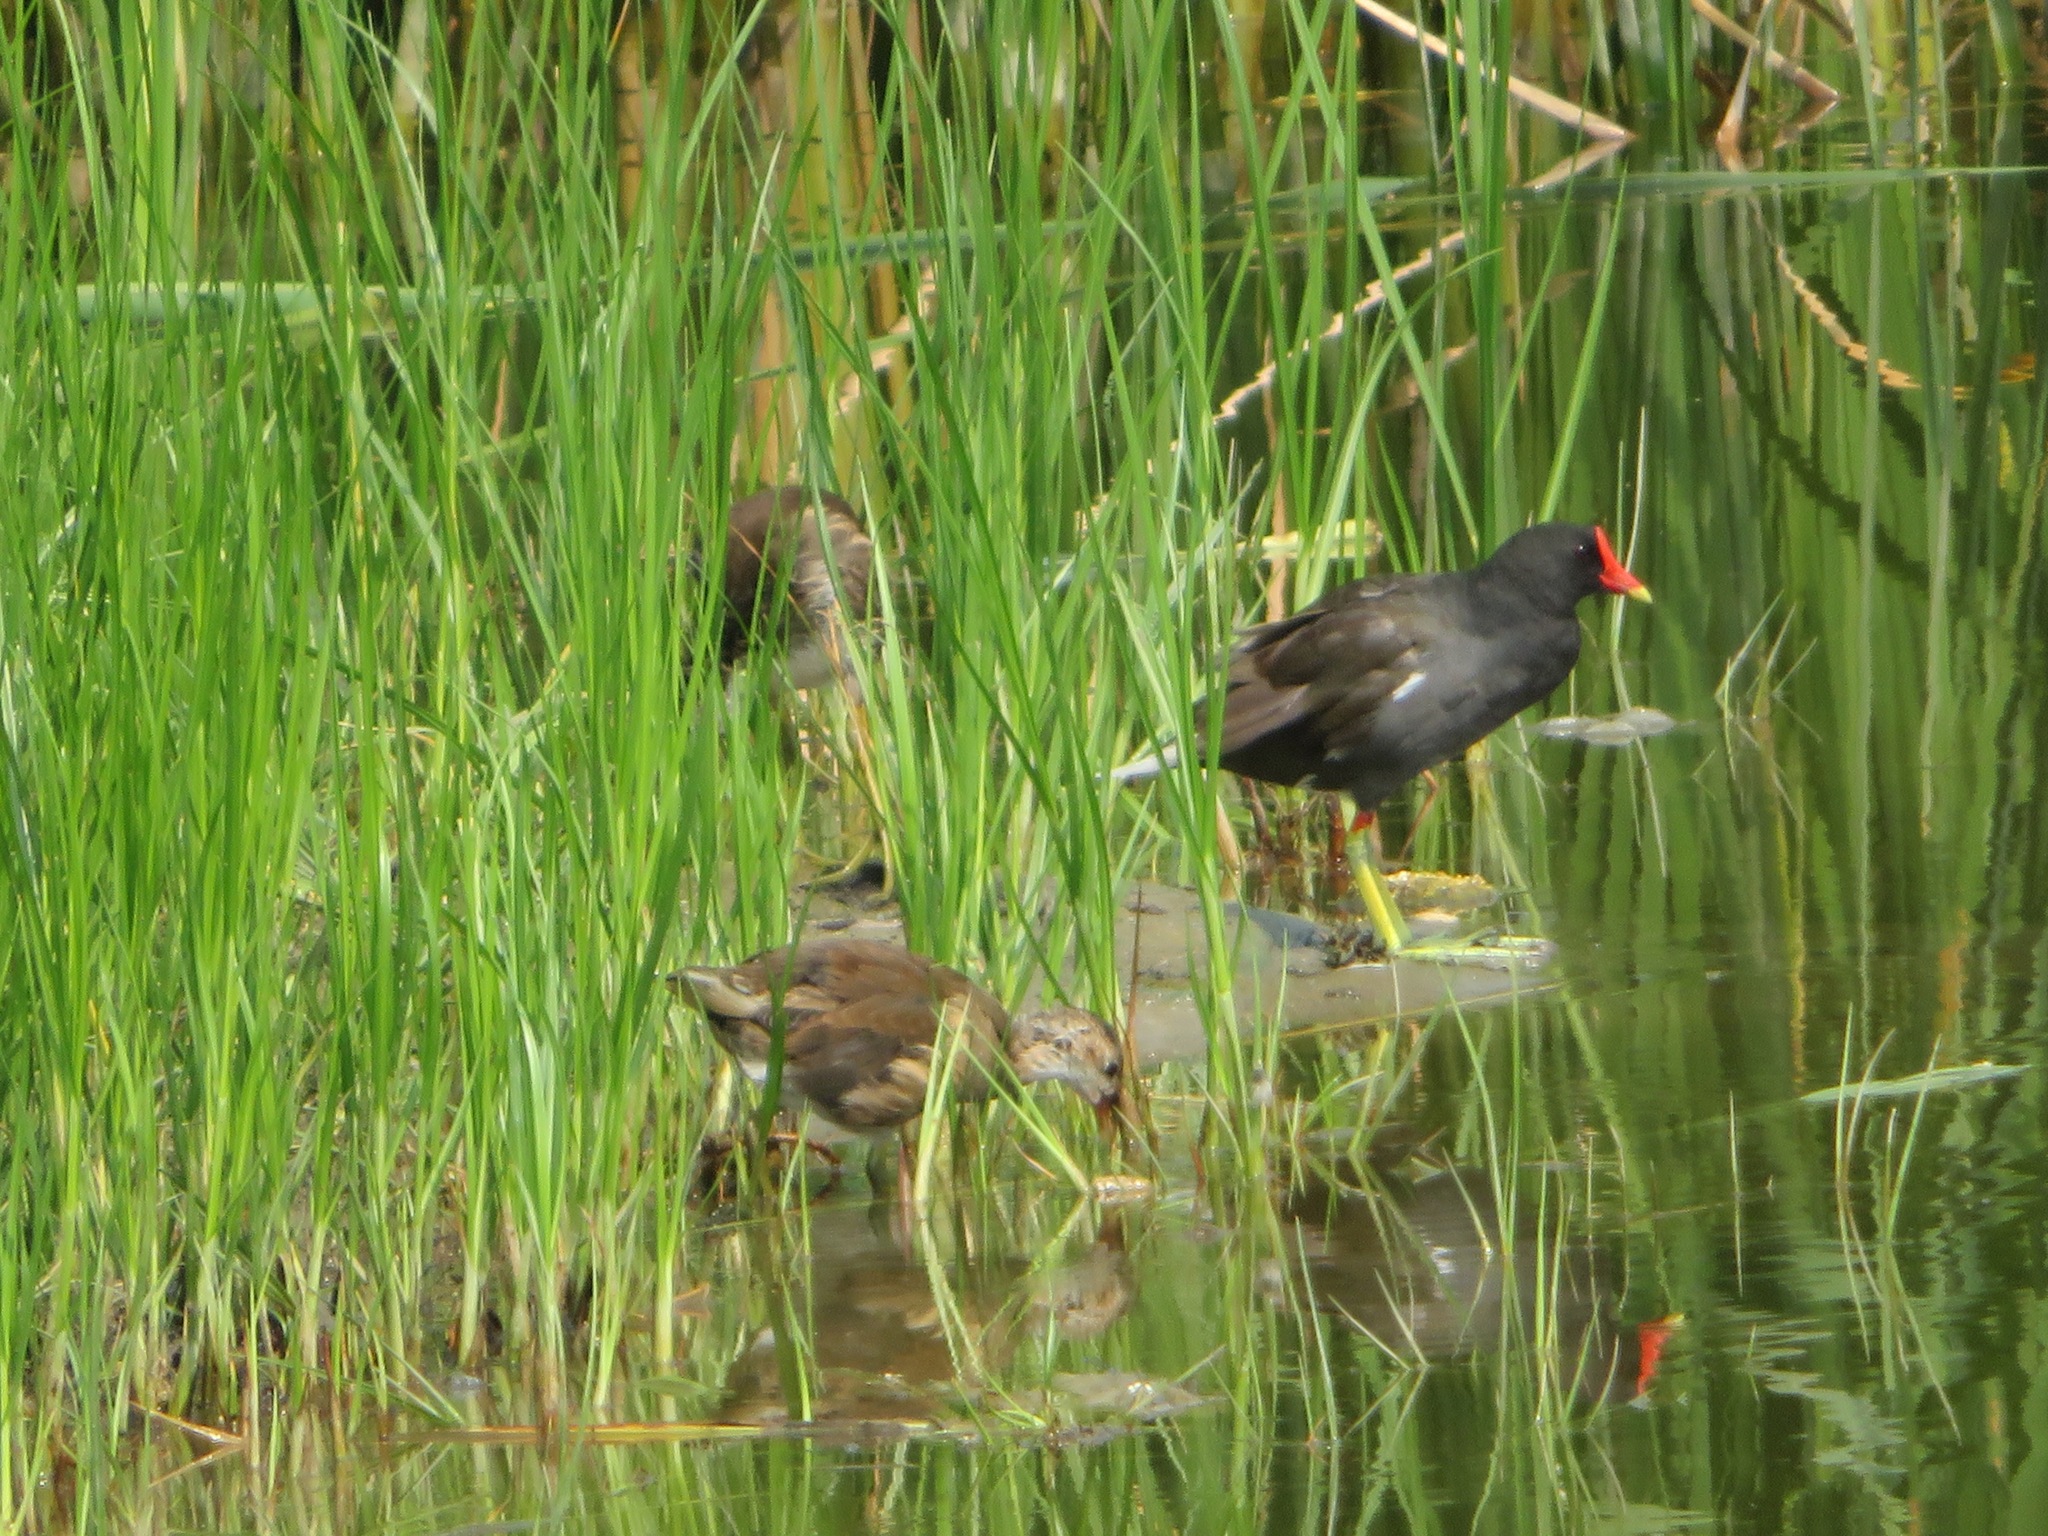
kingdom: Animalia
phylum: Chordata
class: Aves
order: Gruiformes
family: Rallidae
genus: Gallinula
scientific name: Gallinula chloropus
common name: Common moorhen
